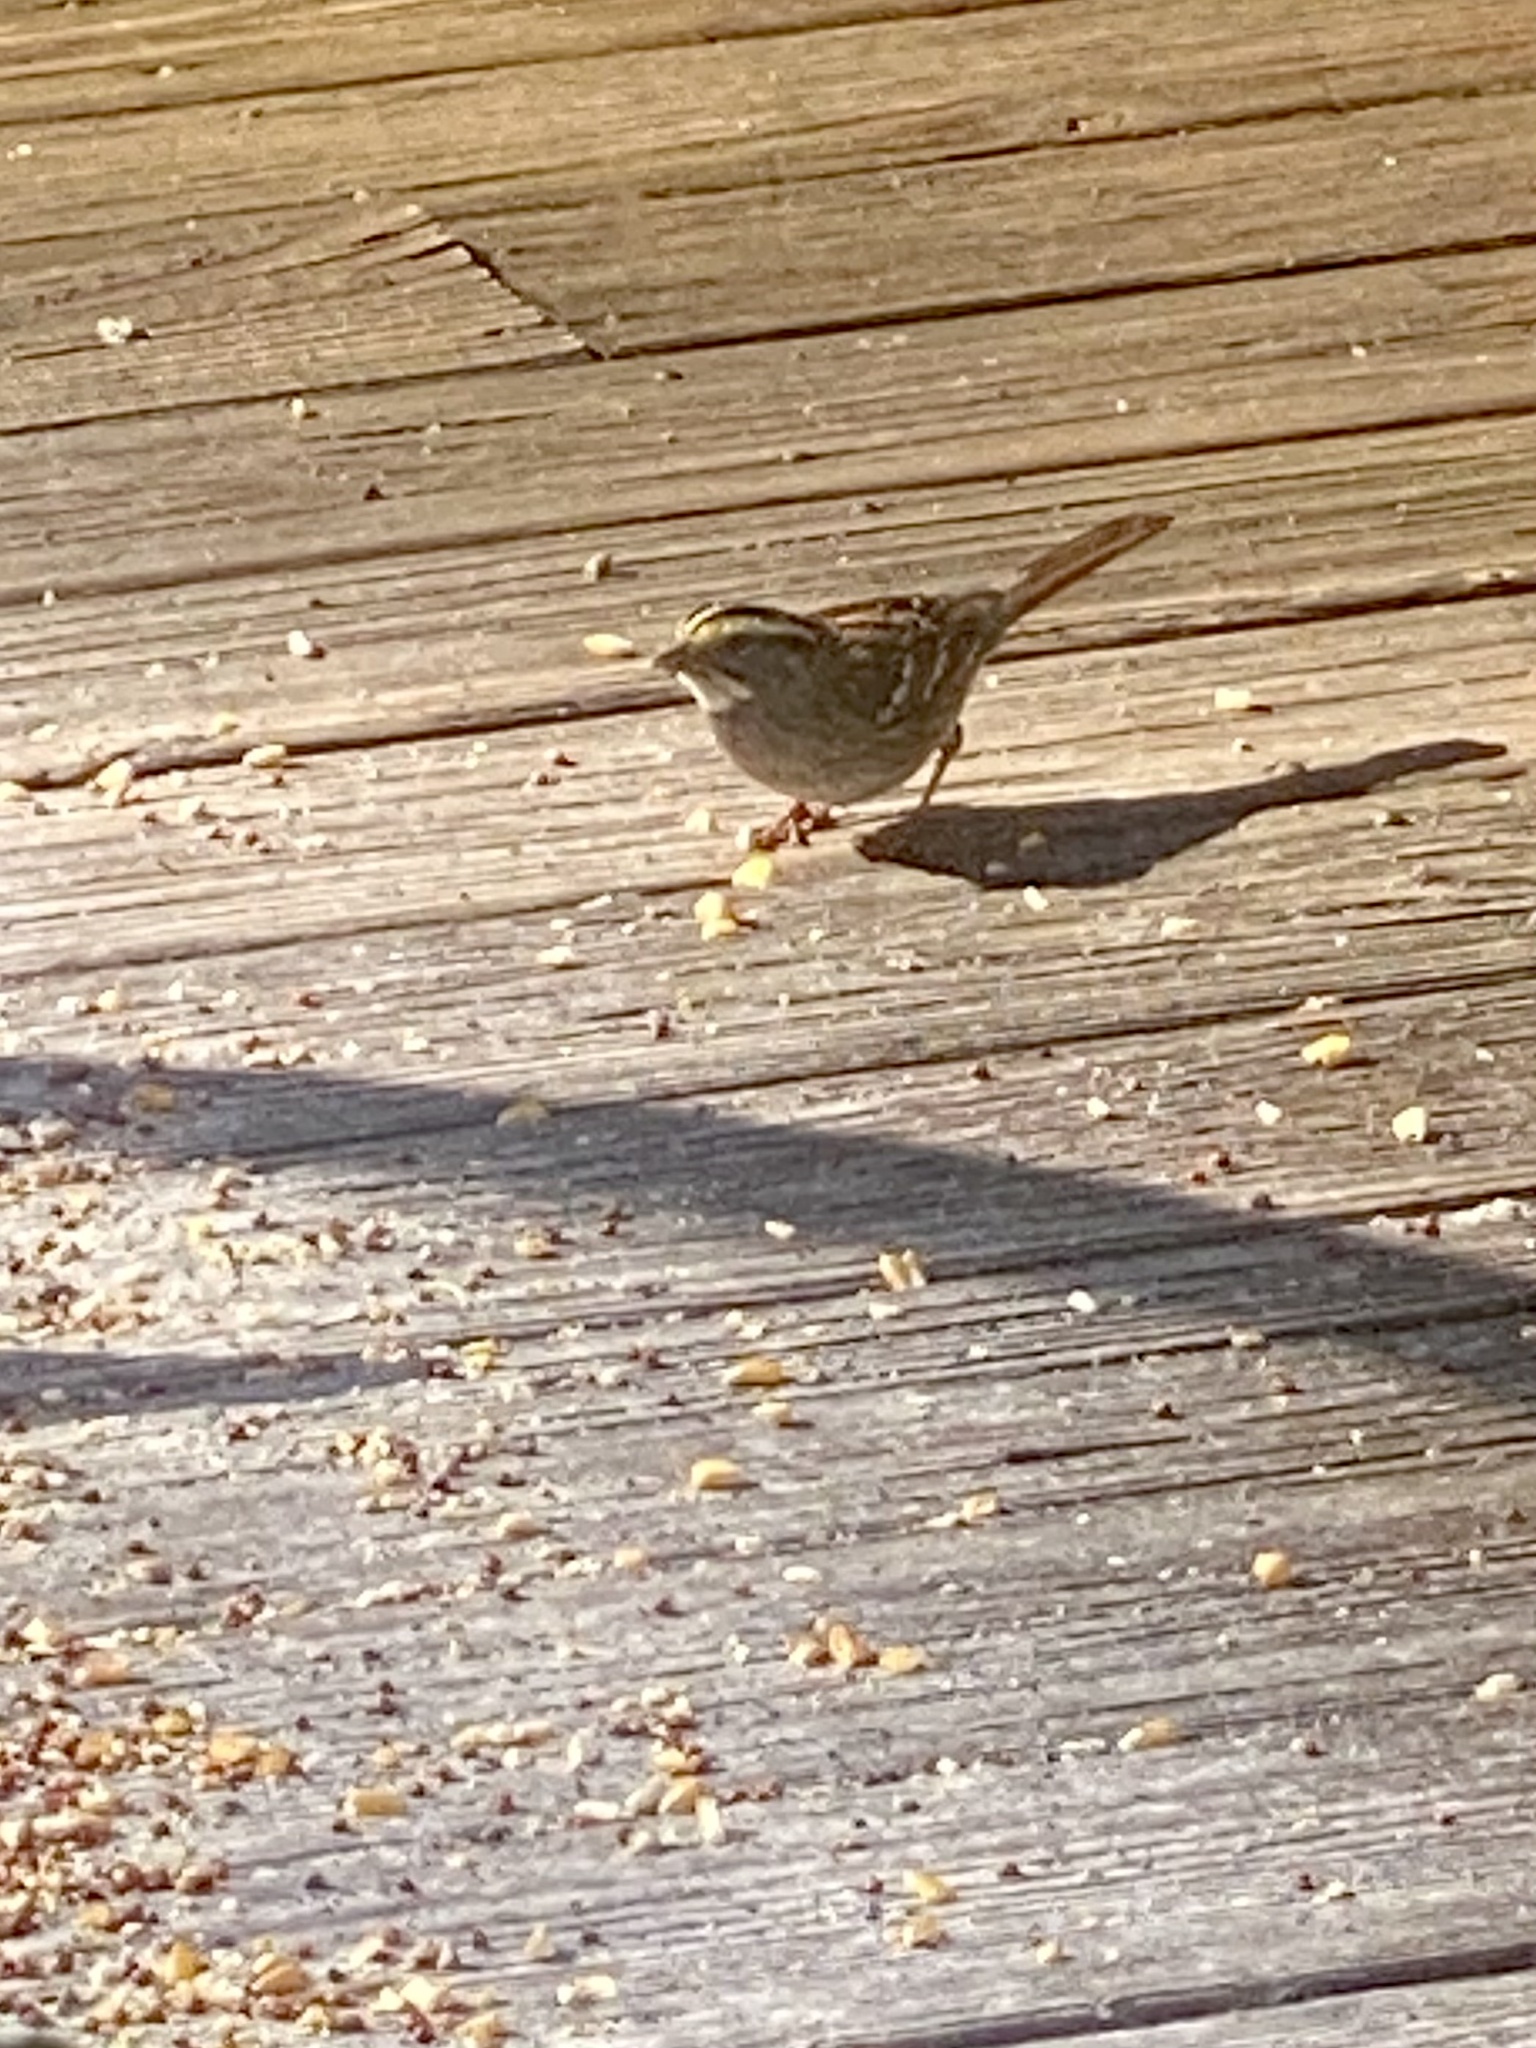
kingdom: Animalia
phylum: Chordata
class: Aves
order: Passeriformes
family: Passerellidae
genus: Zonotrichia
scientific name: Zonotrichia albicollis
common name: White-throated sparrow
